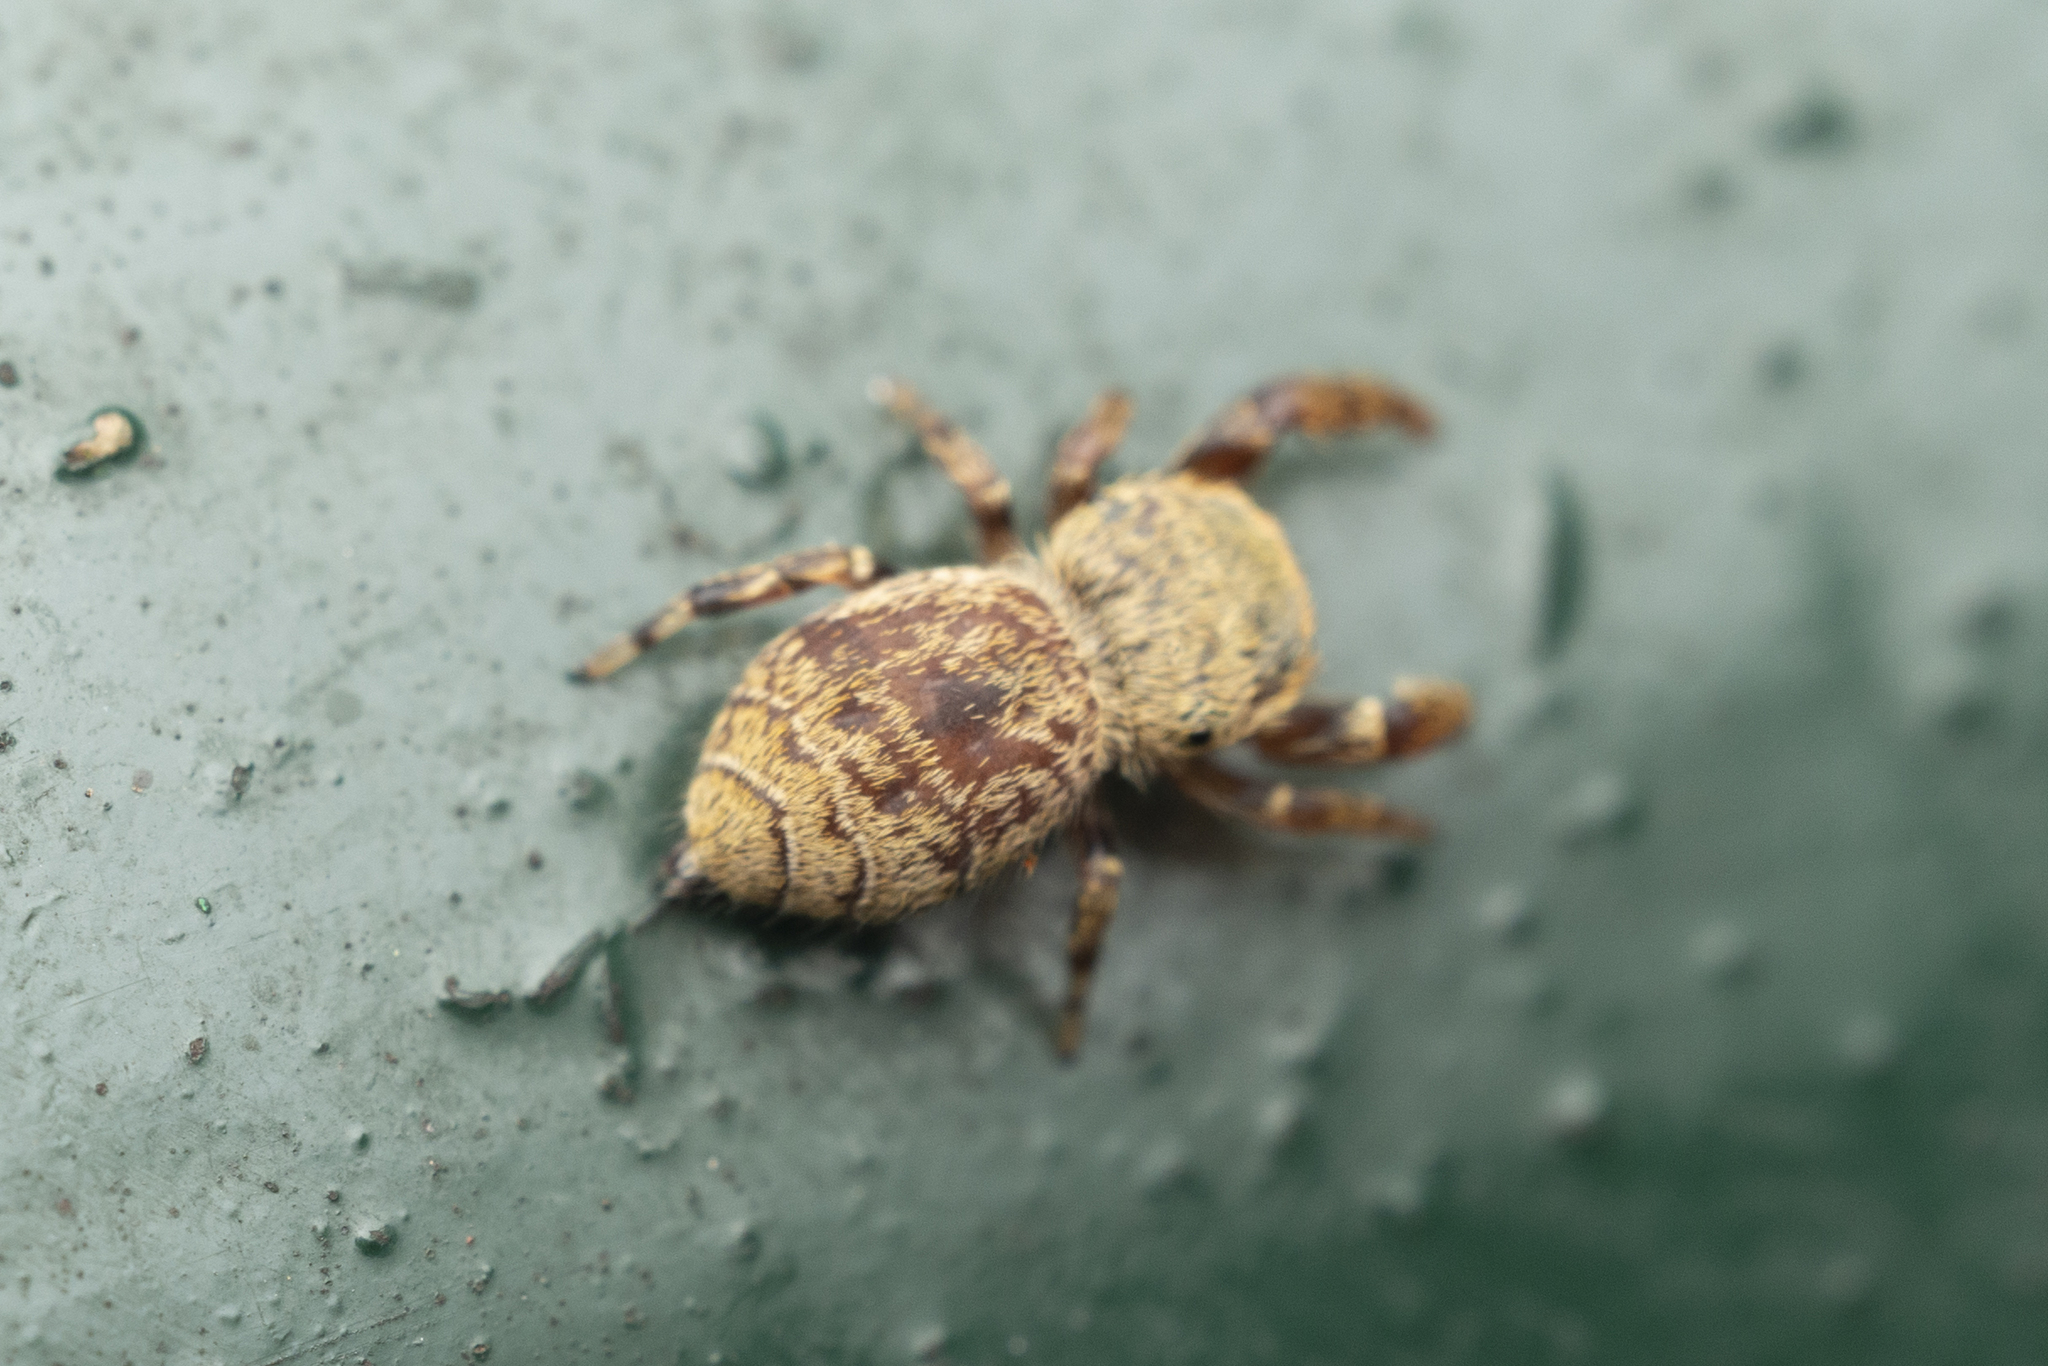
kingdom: Animalia
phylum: Arthropoda
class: Arachnida
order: Araneae
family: Salticidae
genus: Rhene
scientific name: Rhene flavicomans
